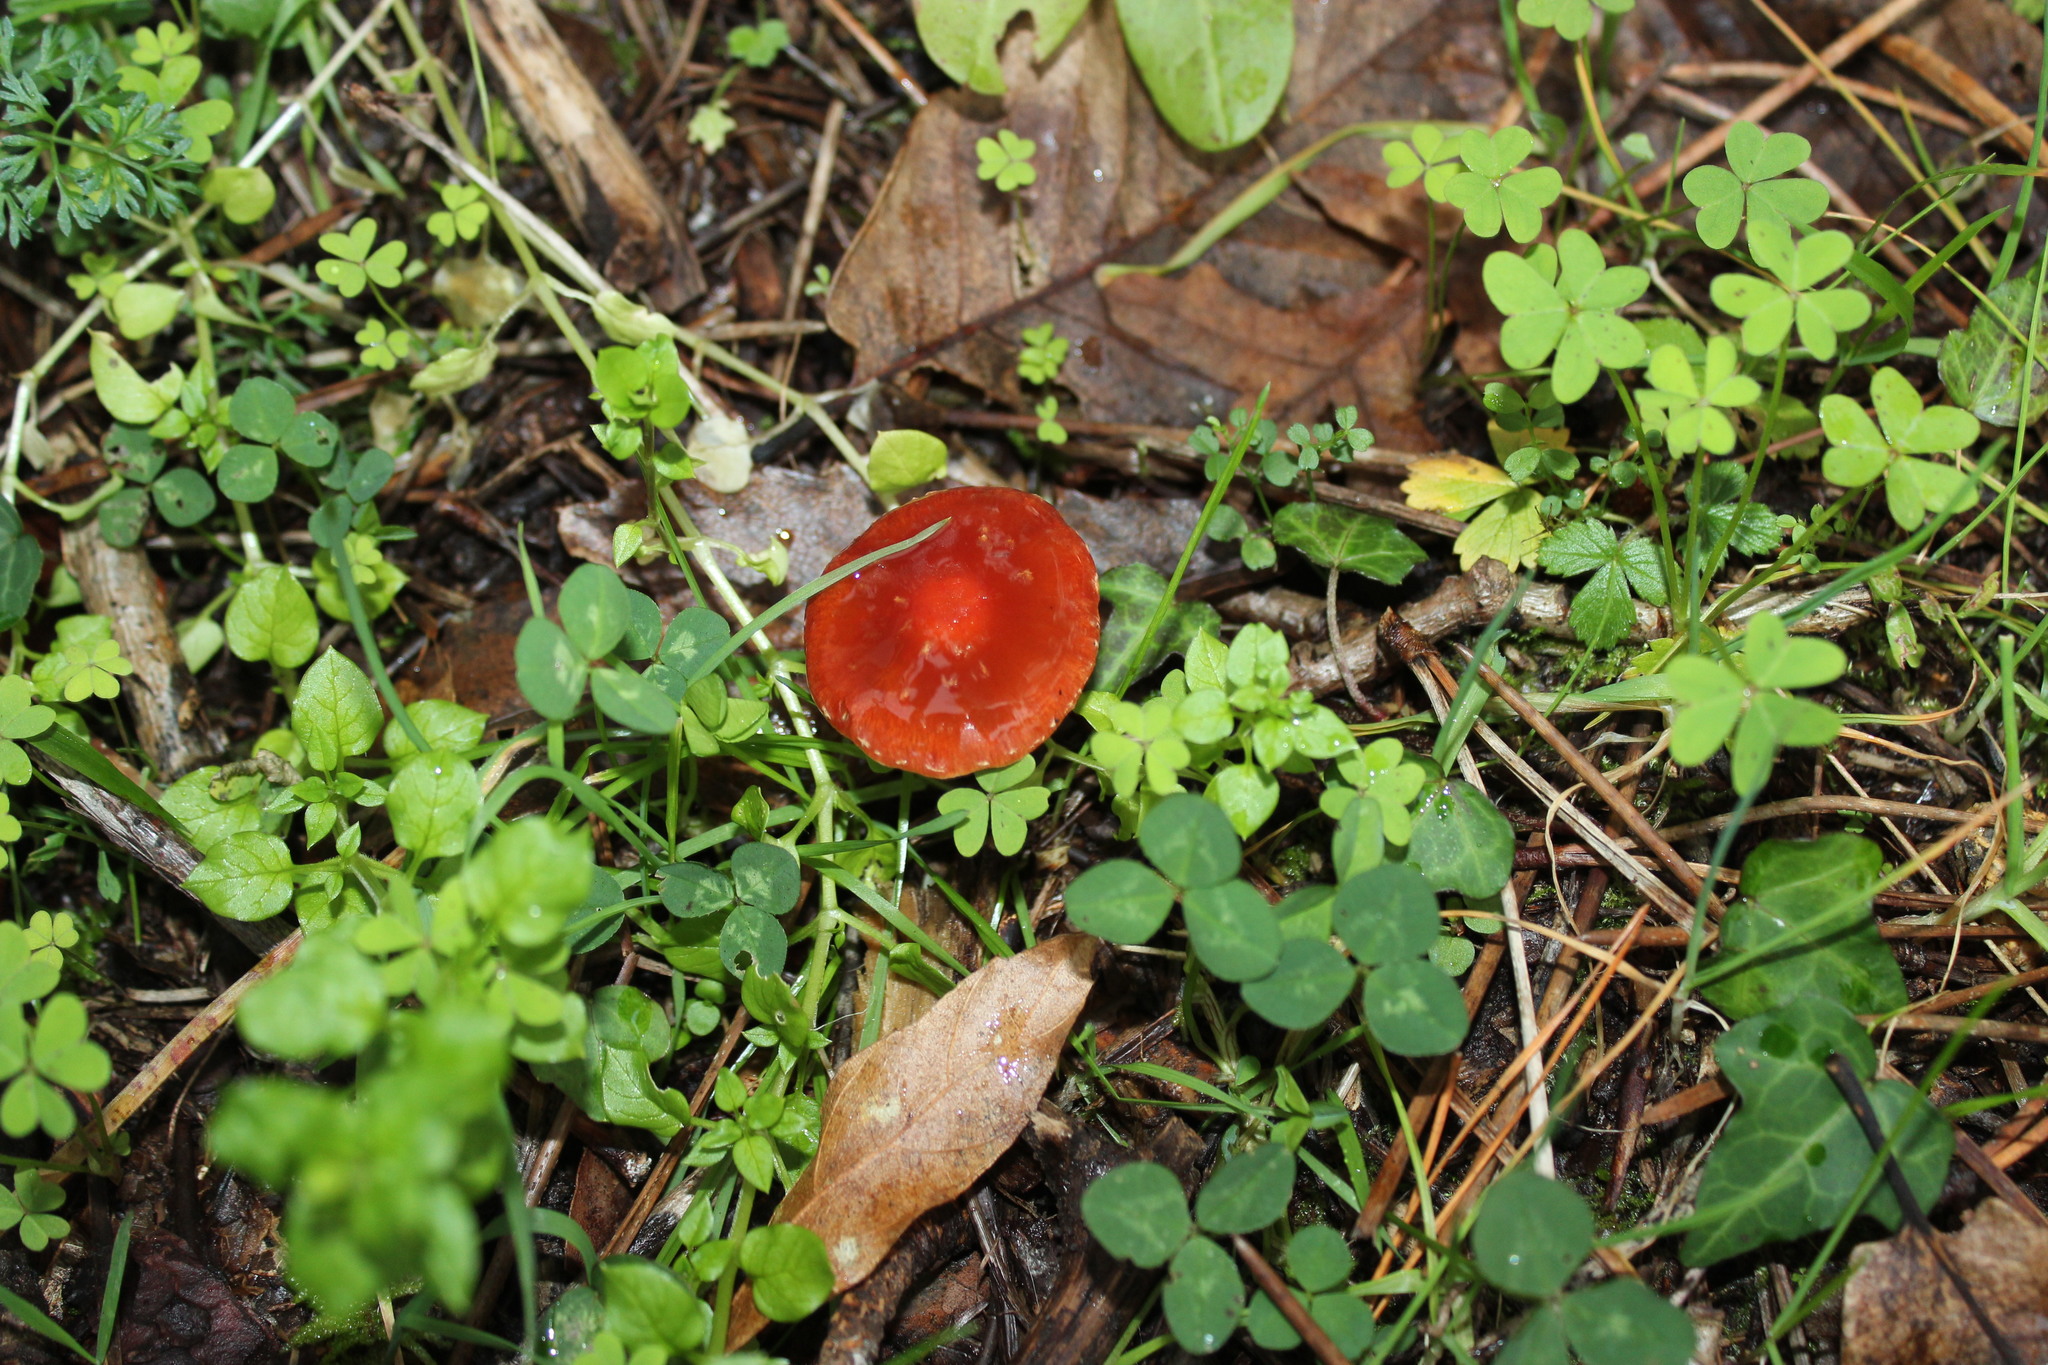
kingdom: Fungi
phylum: Basidiomycota
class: Agaricomycetes
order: Agaricales
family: Strophariaceae
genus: Leratiomyces
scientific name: Leratiomyces ceres
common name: Redlead roundhead
